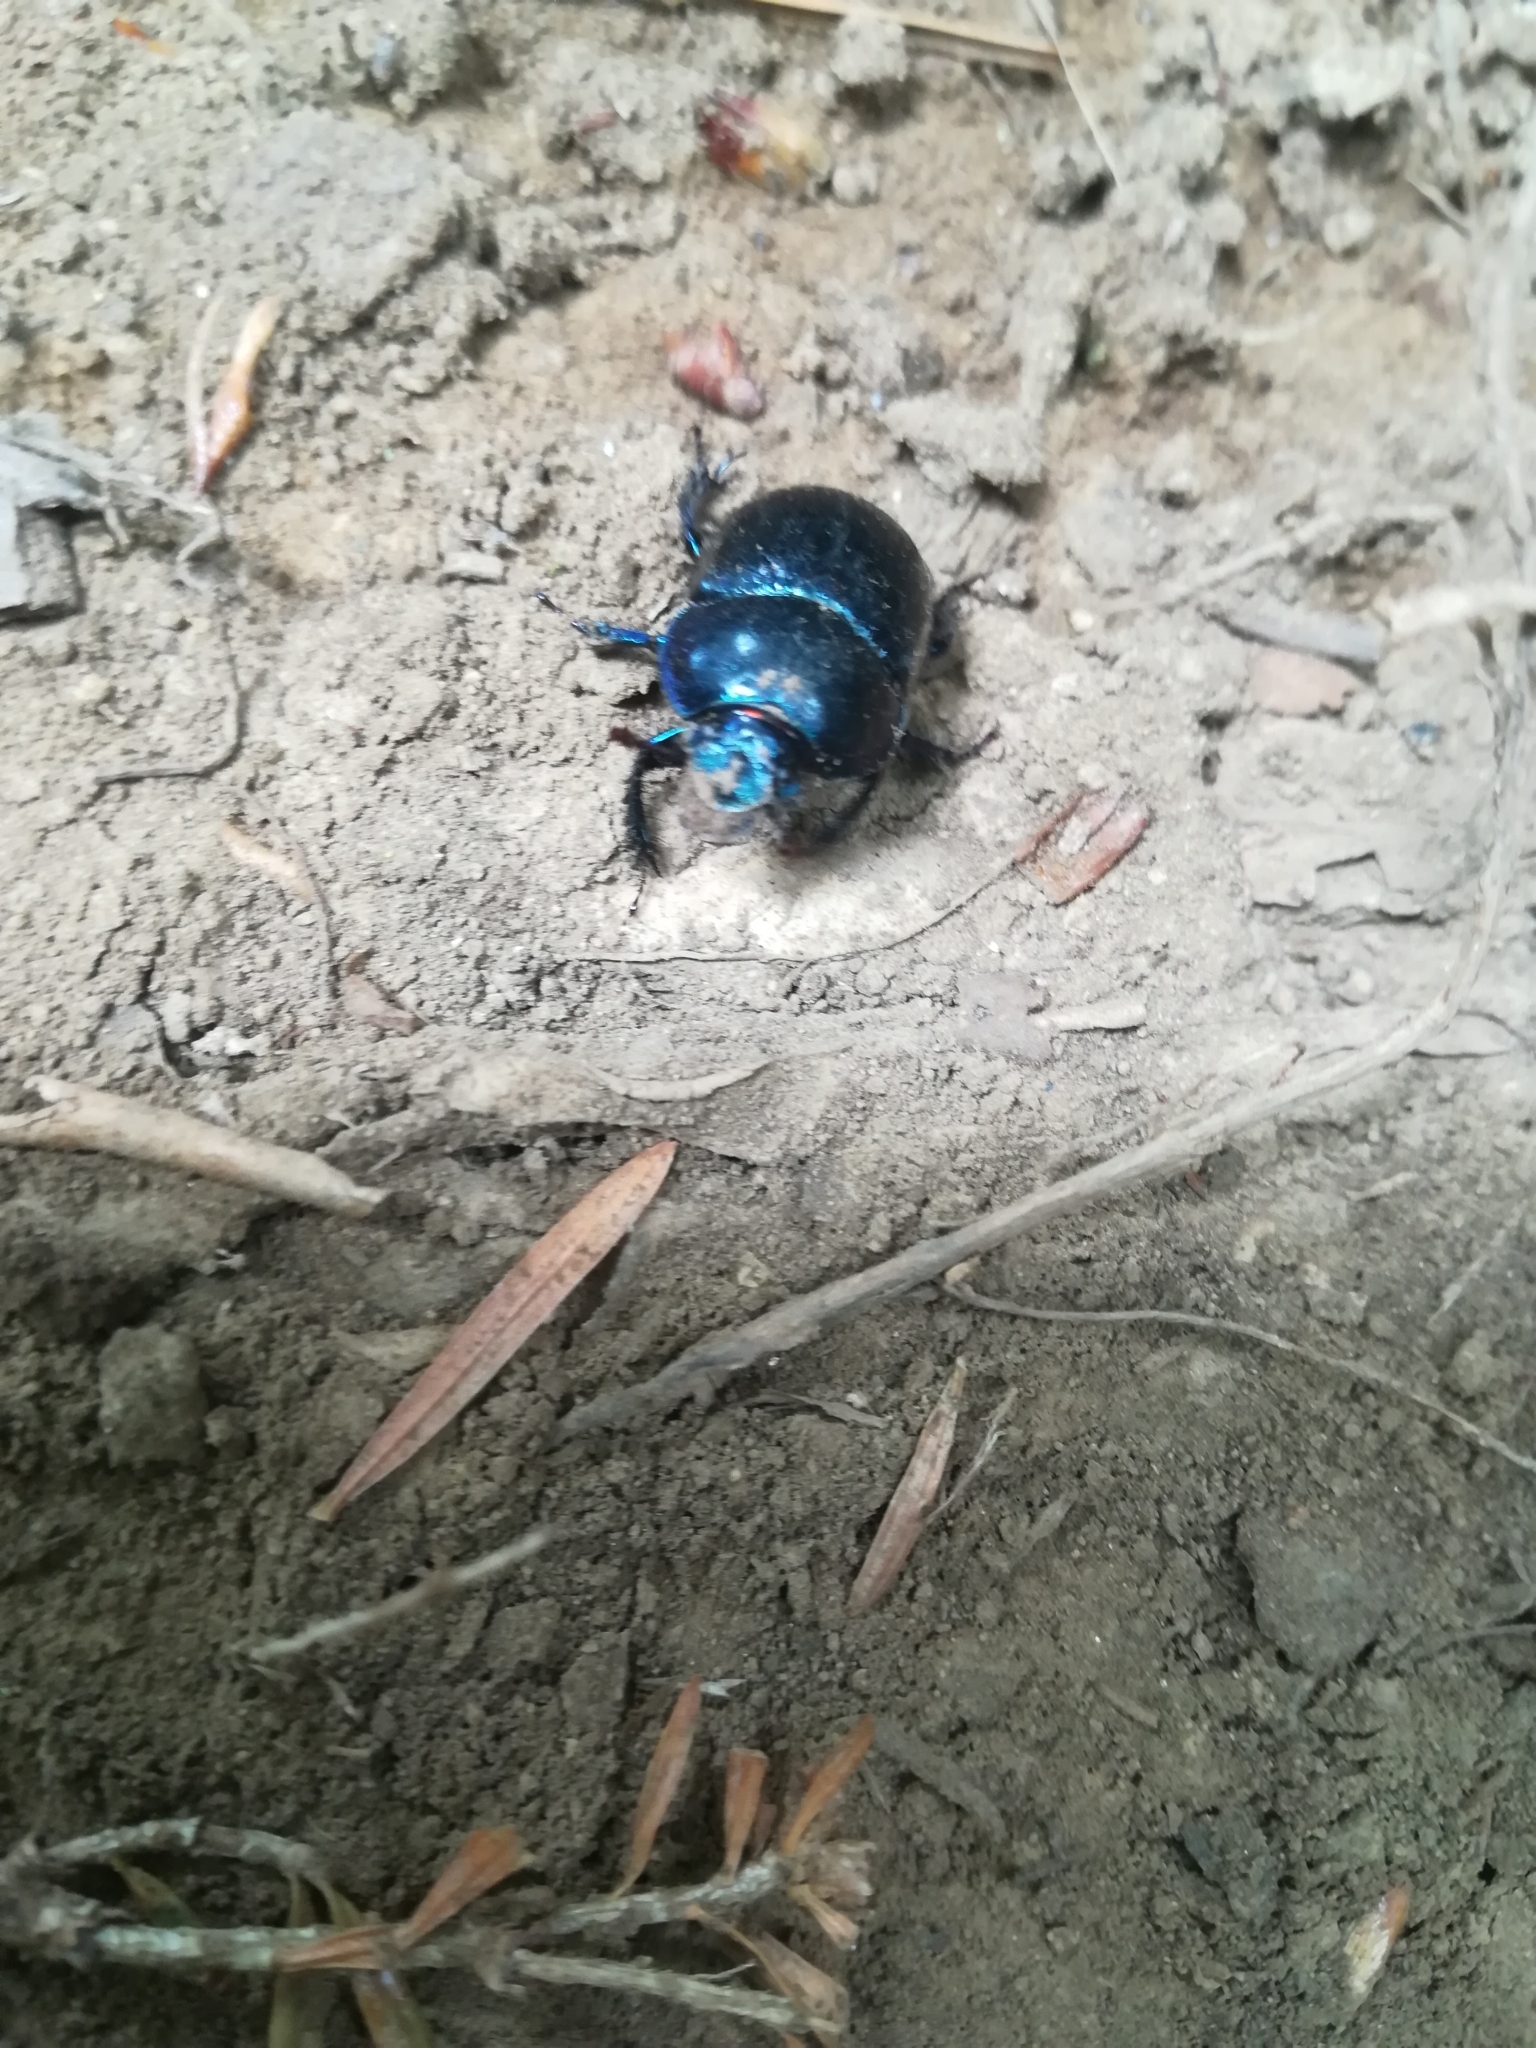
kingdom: Animalia
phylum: Arthropoda
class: Insecta
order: Coleoptera
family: Geotrupidae
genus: Anoplotrupes
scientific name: Anoplotrupes stercorosus
